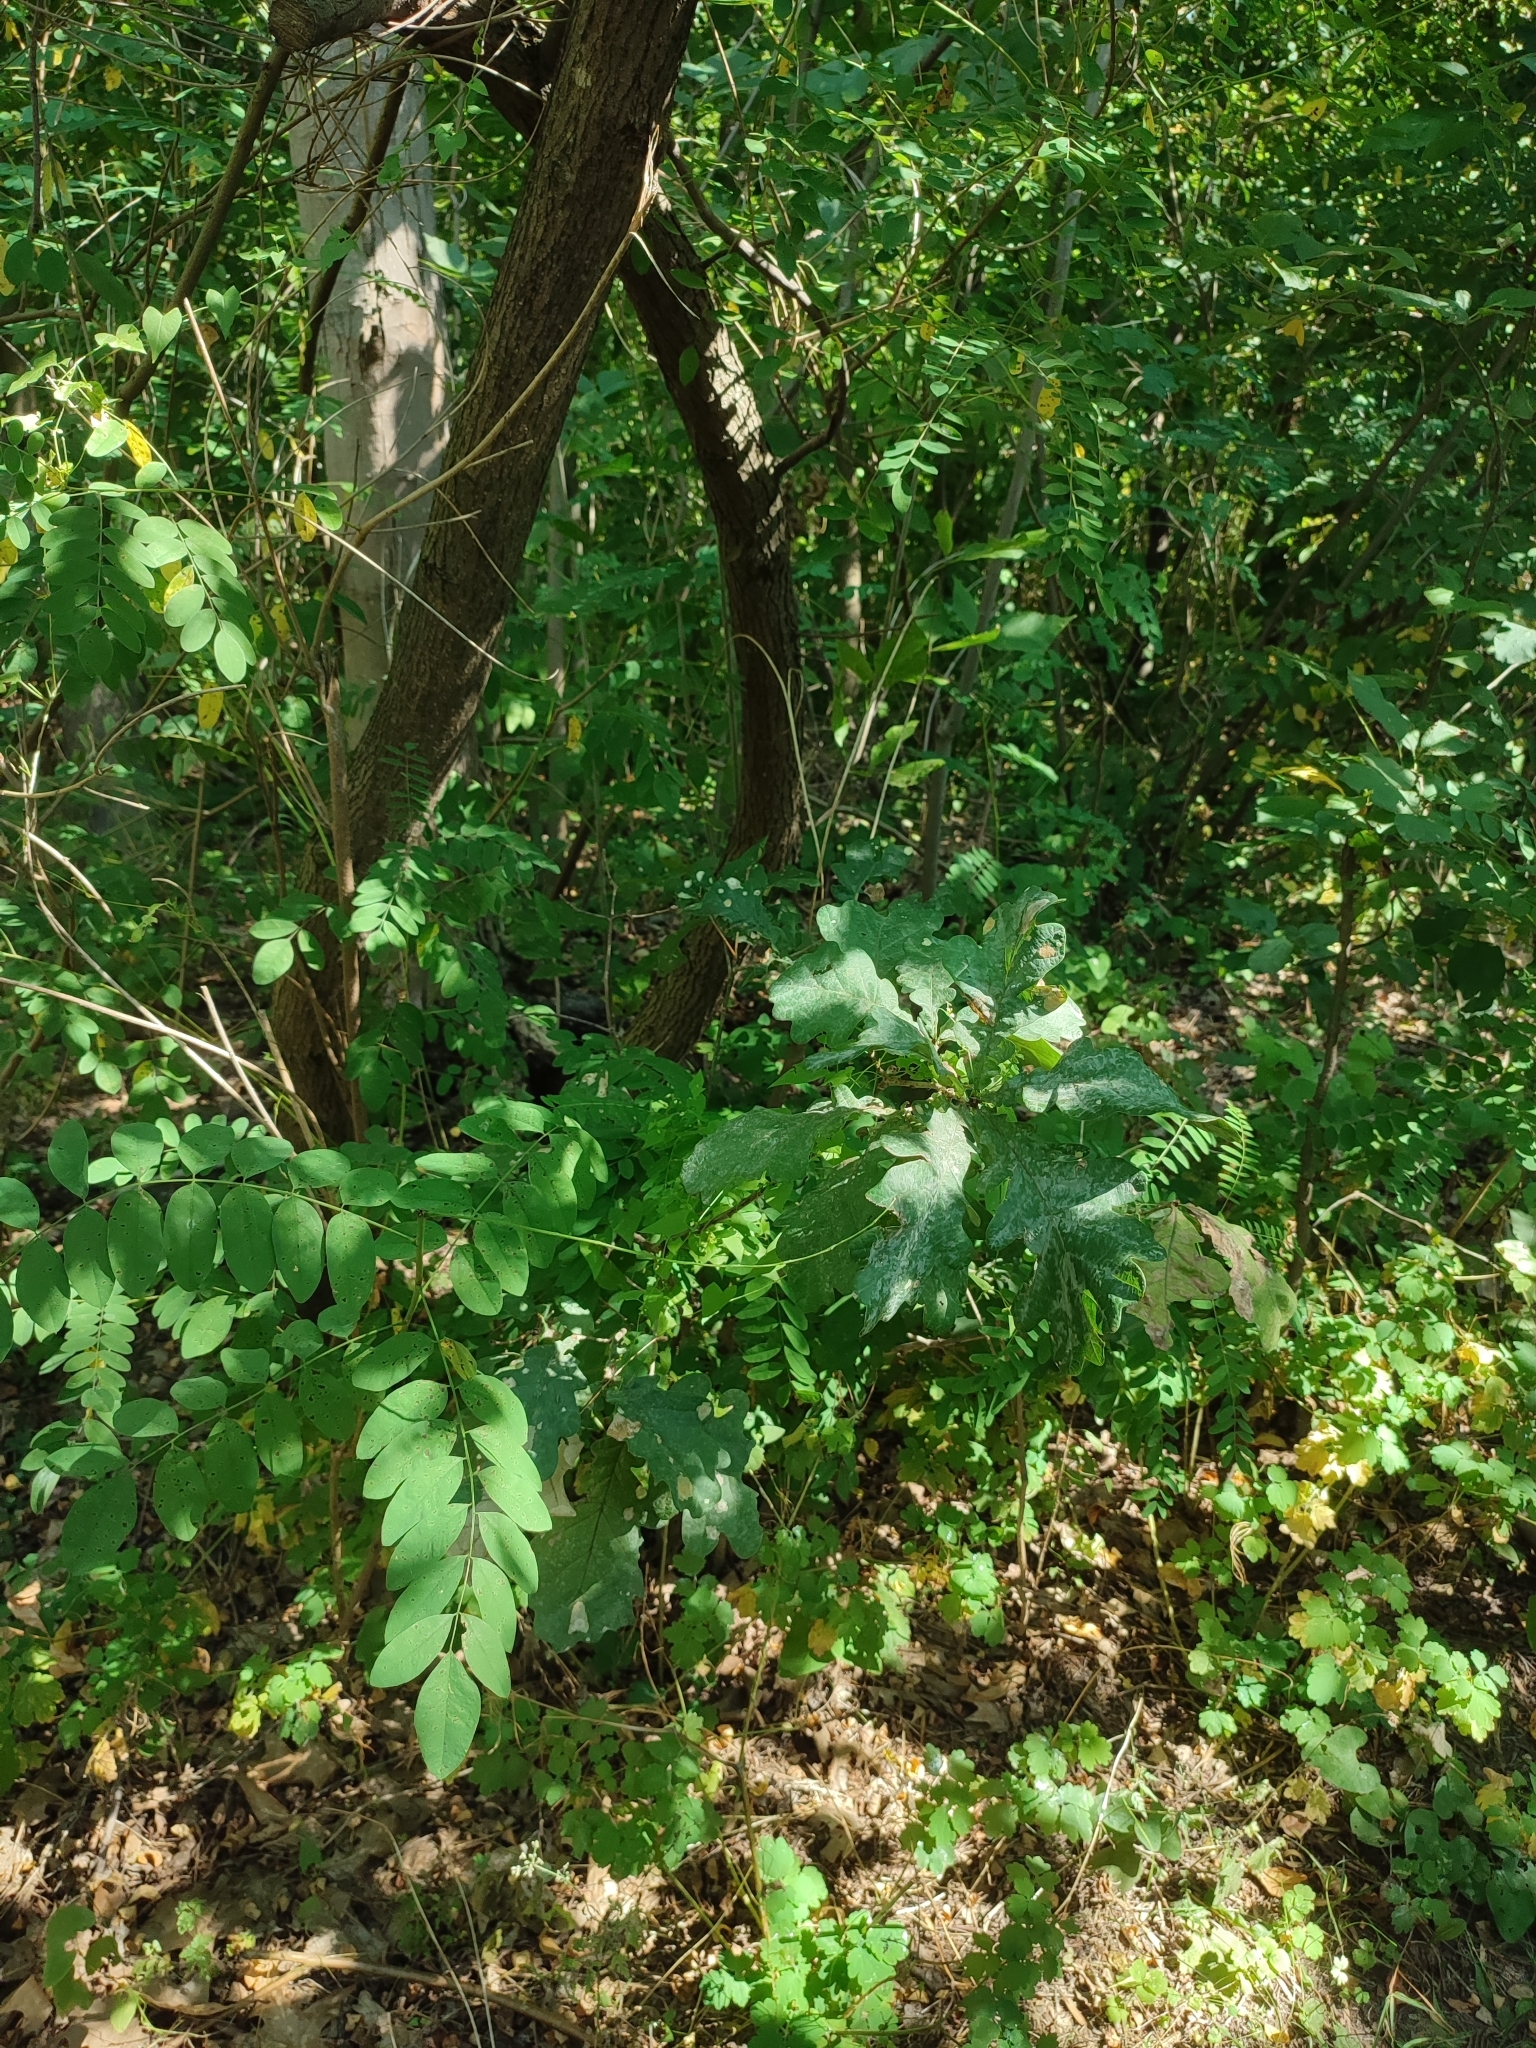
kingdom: Plantae
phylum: Tracheophyta
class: Magnoliopsida
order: Fagales
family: Fagaceae
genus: Quercus
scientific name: Quercus robur
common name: Pedunculate oak
